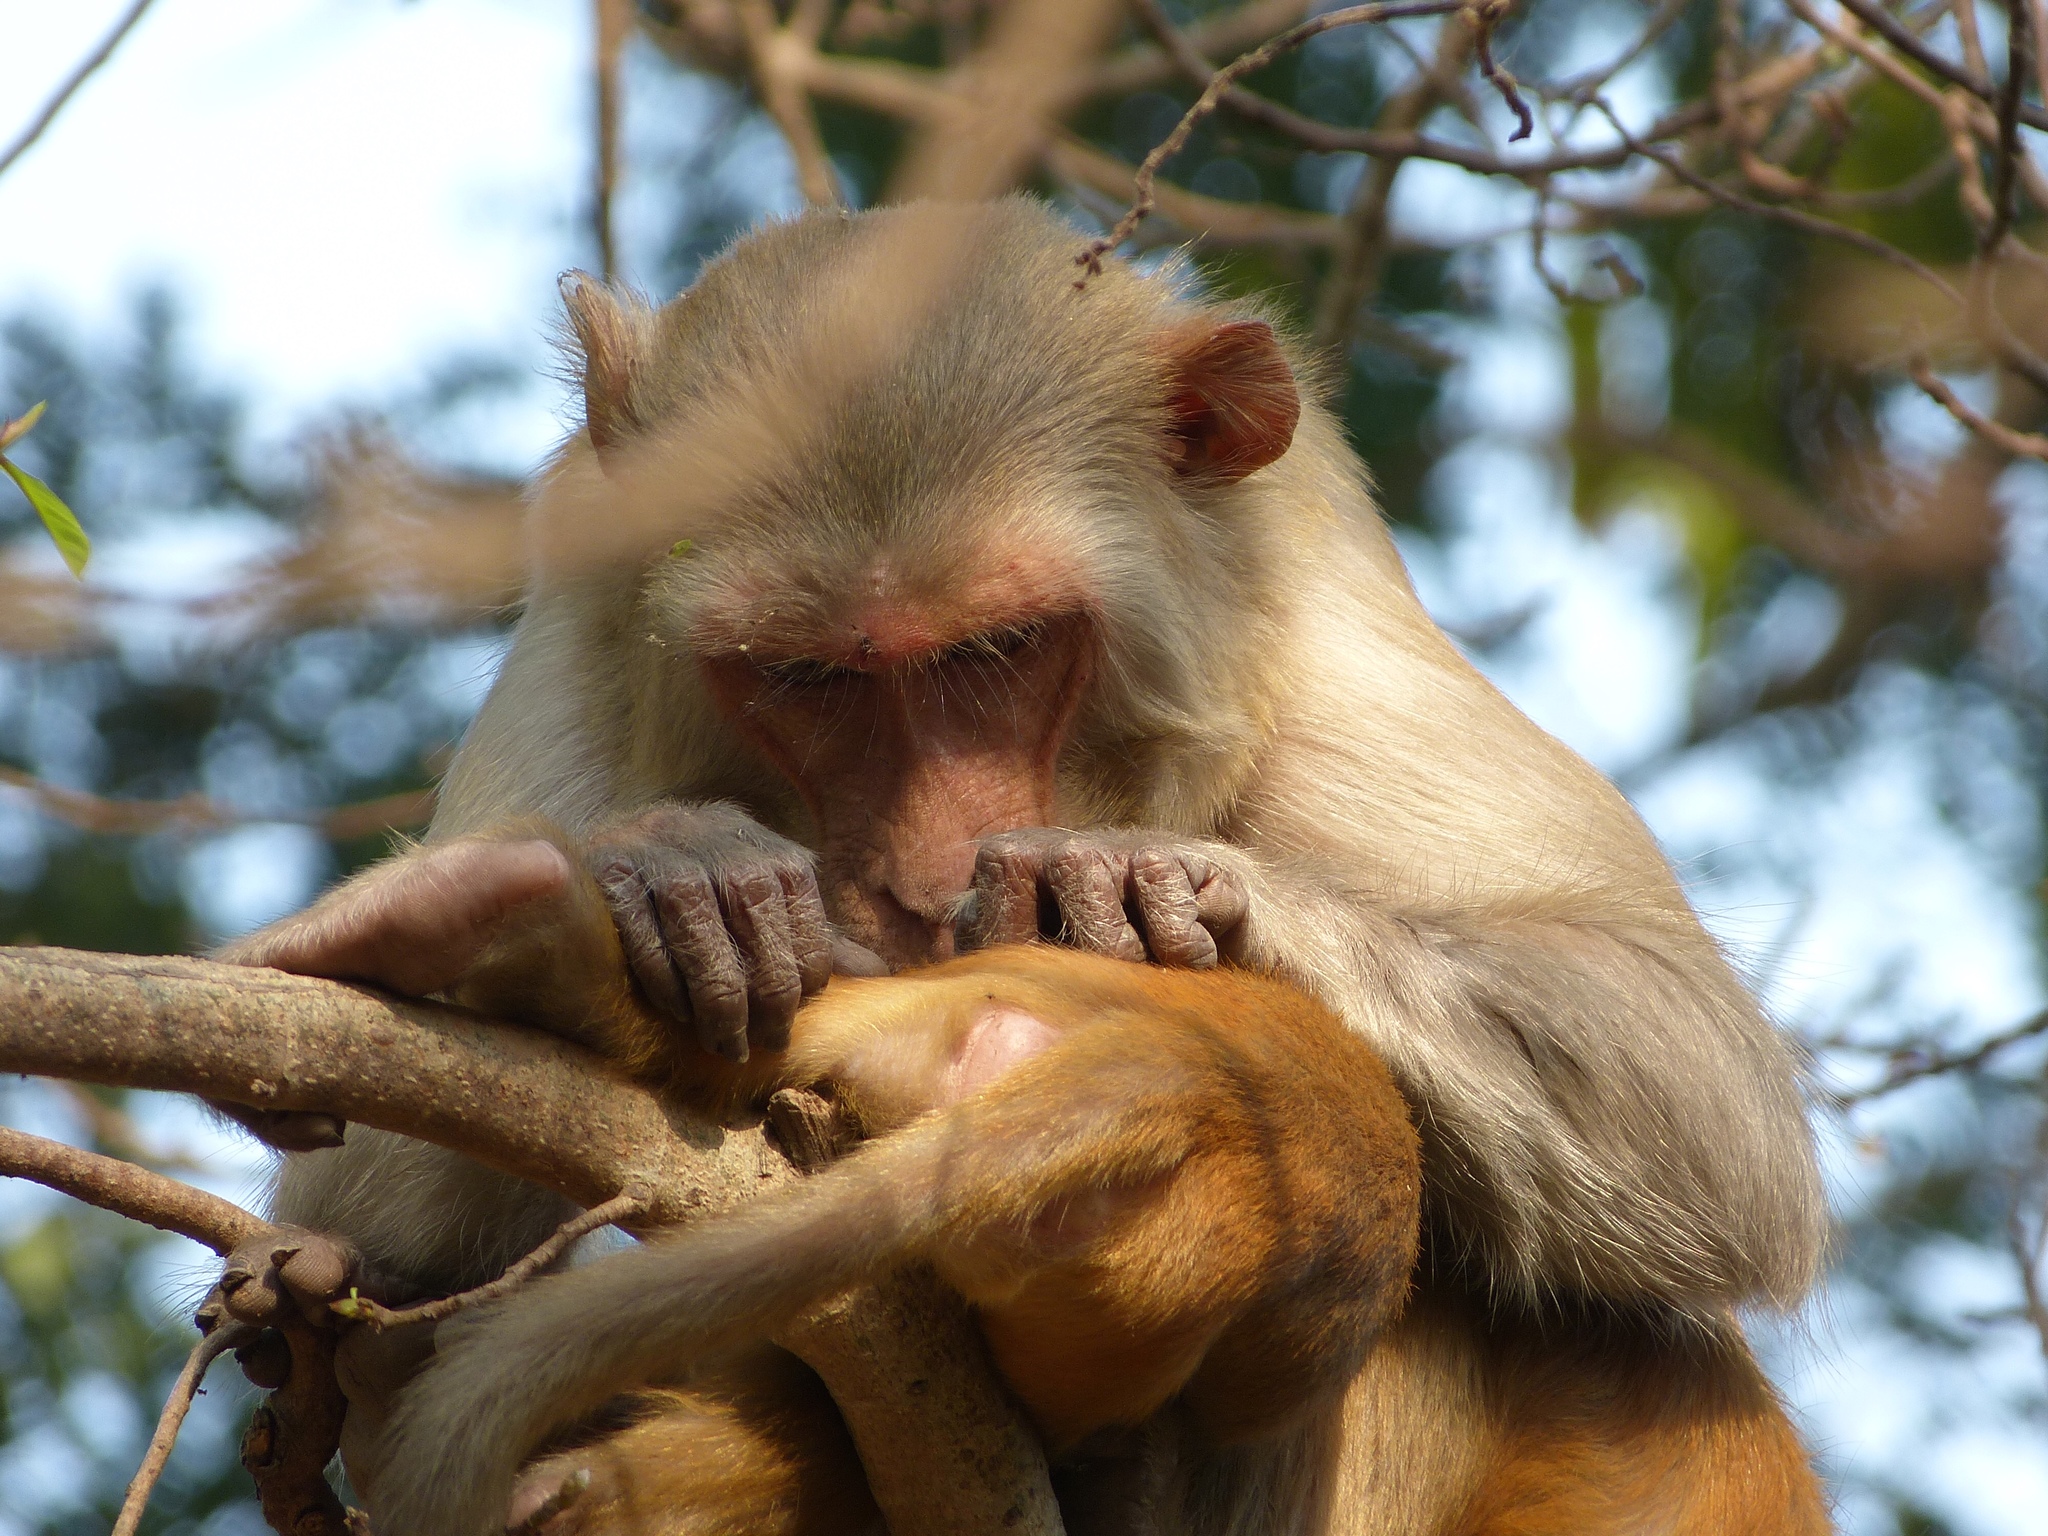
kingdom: Animalia
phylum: Chordata
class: Mammalia
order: Primates
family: Cercopithecidae
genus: Macaca
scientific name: Macaca mulatta
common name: Rhesus monkey
